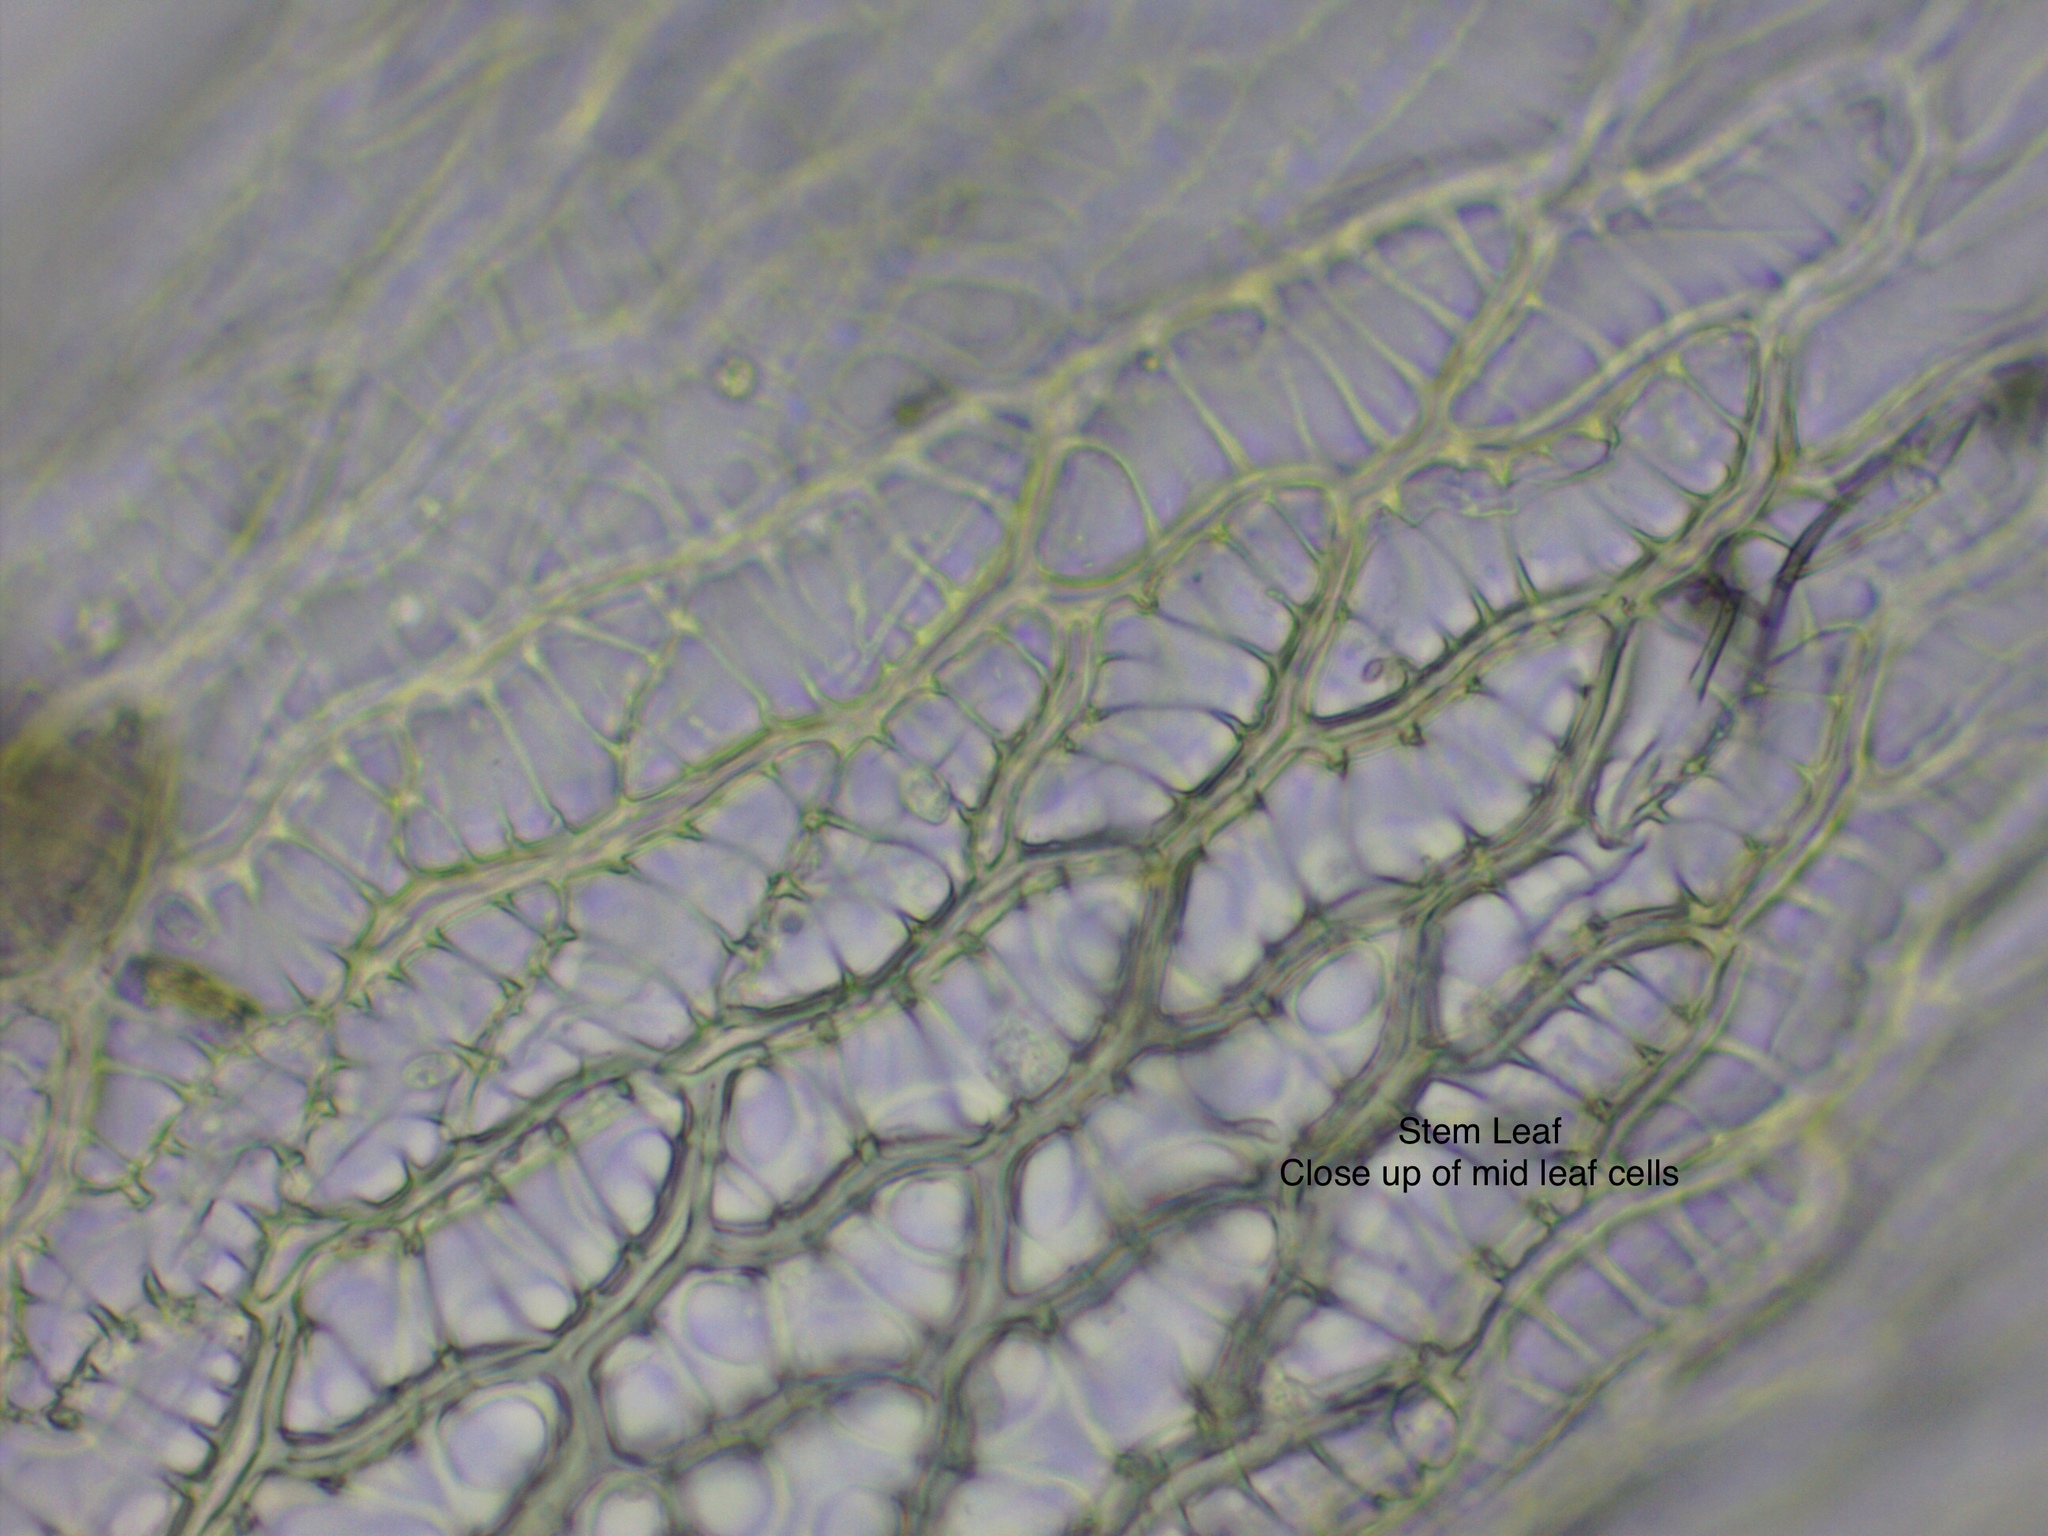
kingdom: Plantae
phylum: Bryophyta
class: Sphagnopsida
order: Sphagnales
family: Sphagnaceae
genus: Sphagnum
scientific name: Sphagnum compactum
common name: Compact peat moss
